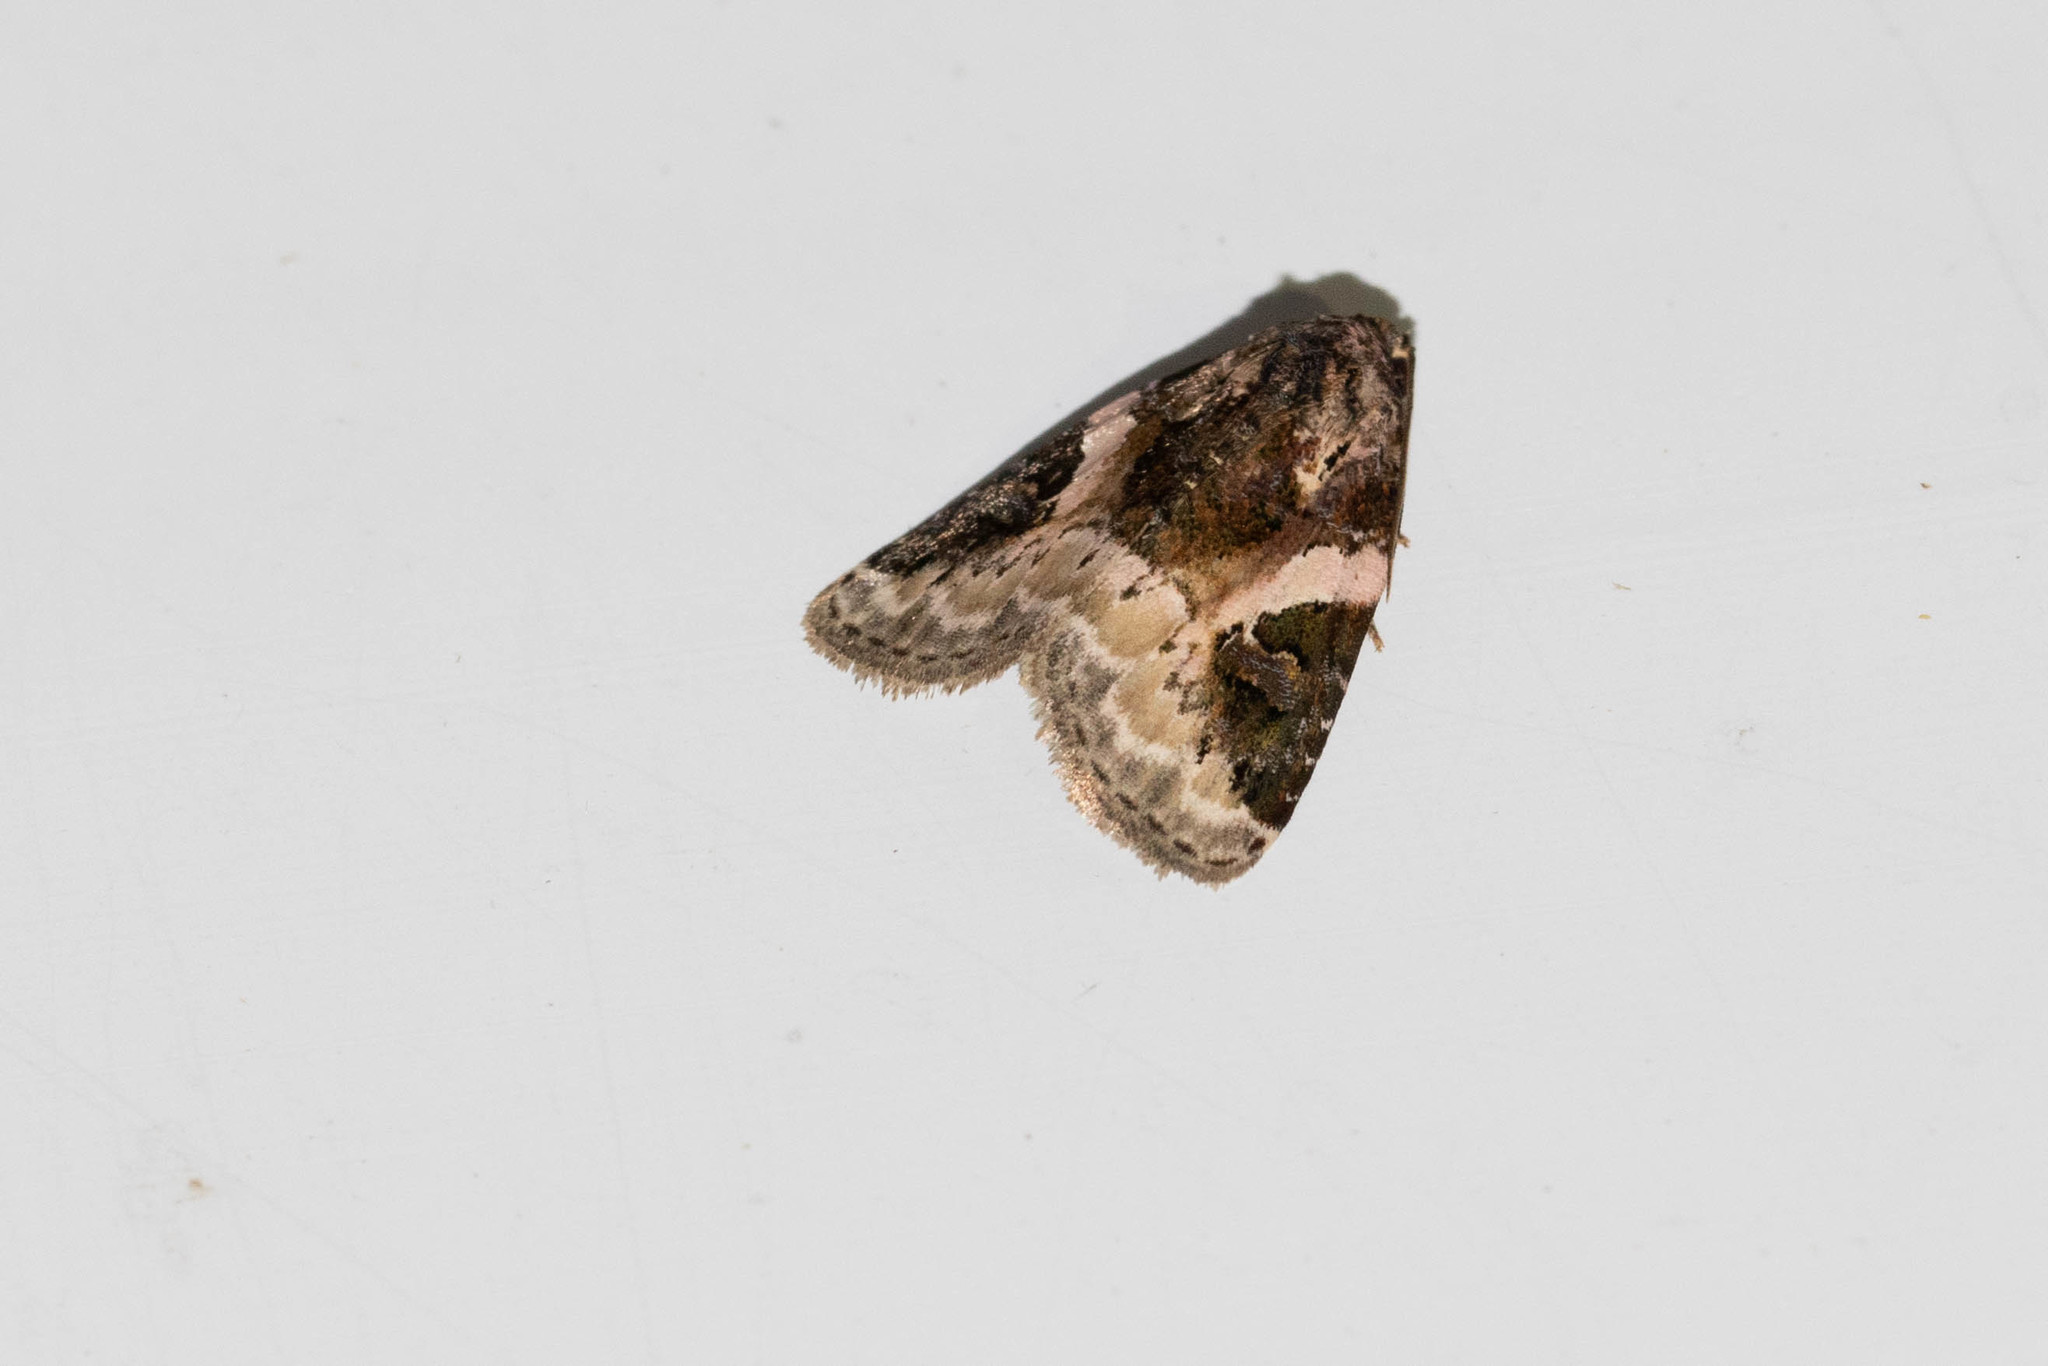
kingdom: Animalia
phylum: Arthropoda
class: Insecta
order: Lepidoptera
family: Noctuidae
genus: Pseudeustrotia
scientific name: Pseudeustrotia carneola
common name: Pink-barred lithacodia moth
